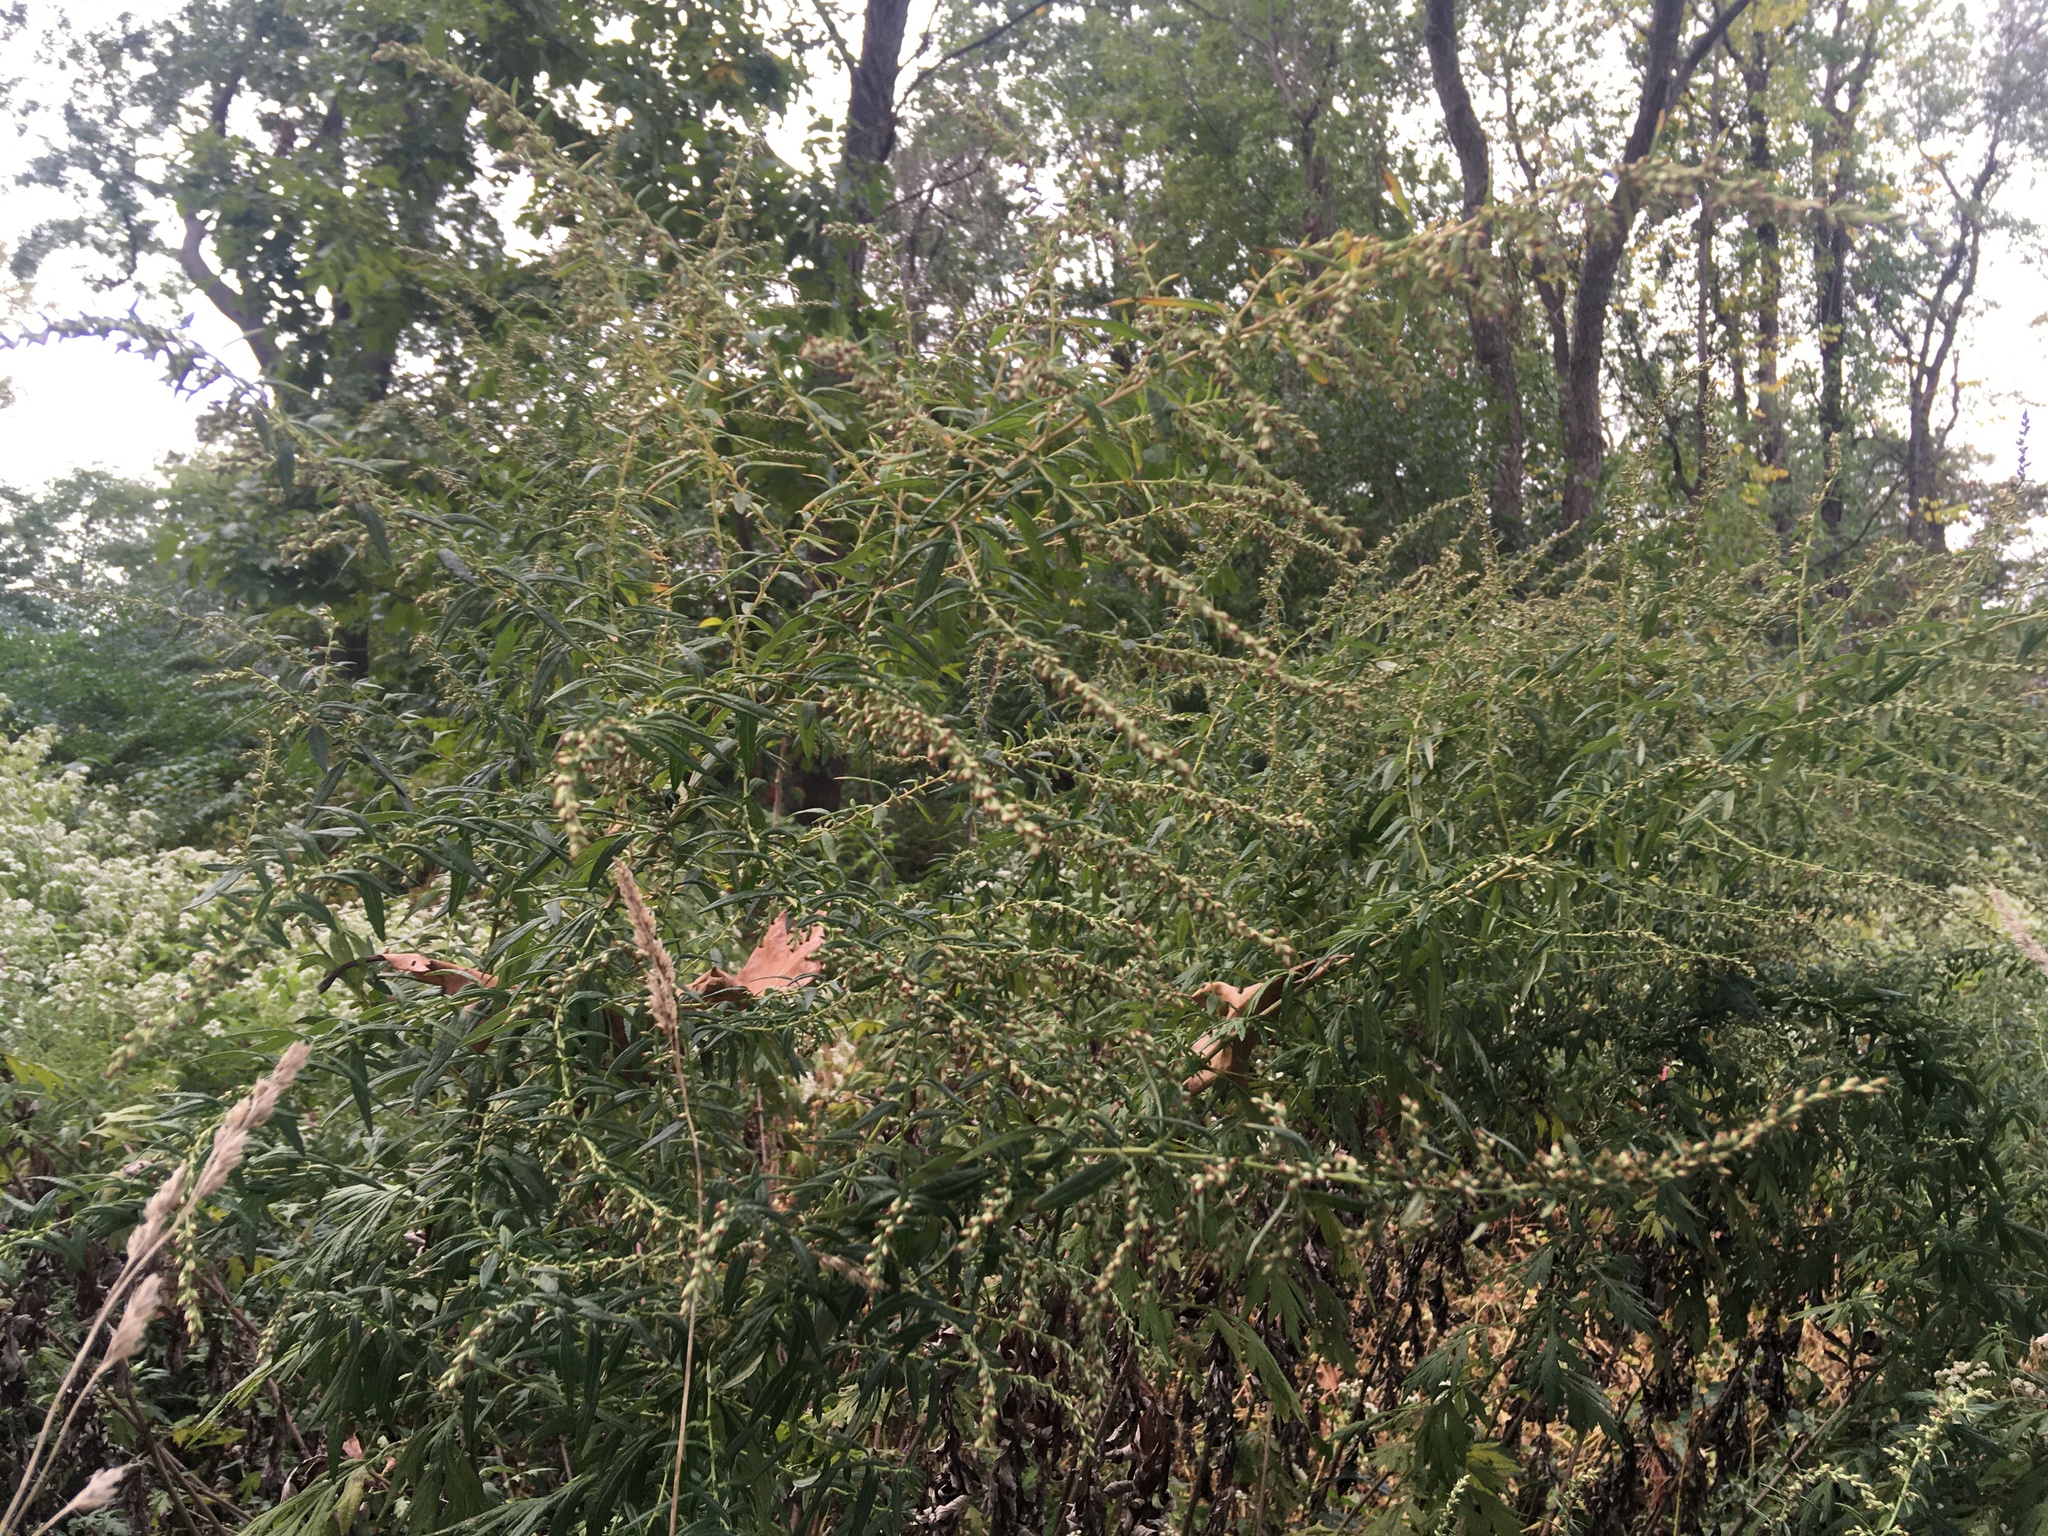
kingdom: Plantae
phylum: Tracheophyta
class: Magnoliopsida
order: Asterales
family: Asteraceae
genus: Artemisia
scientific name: Artemisia vulgaris
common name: Mugwort
